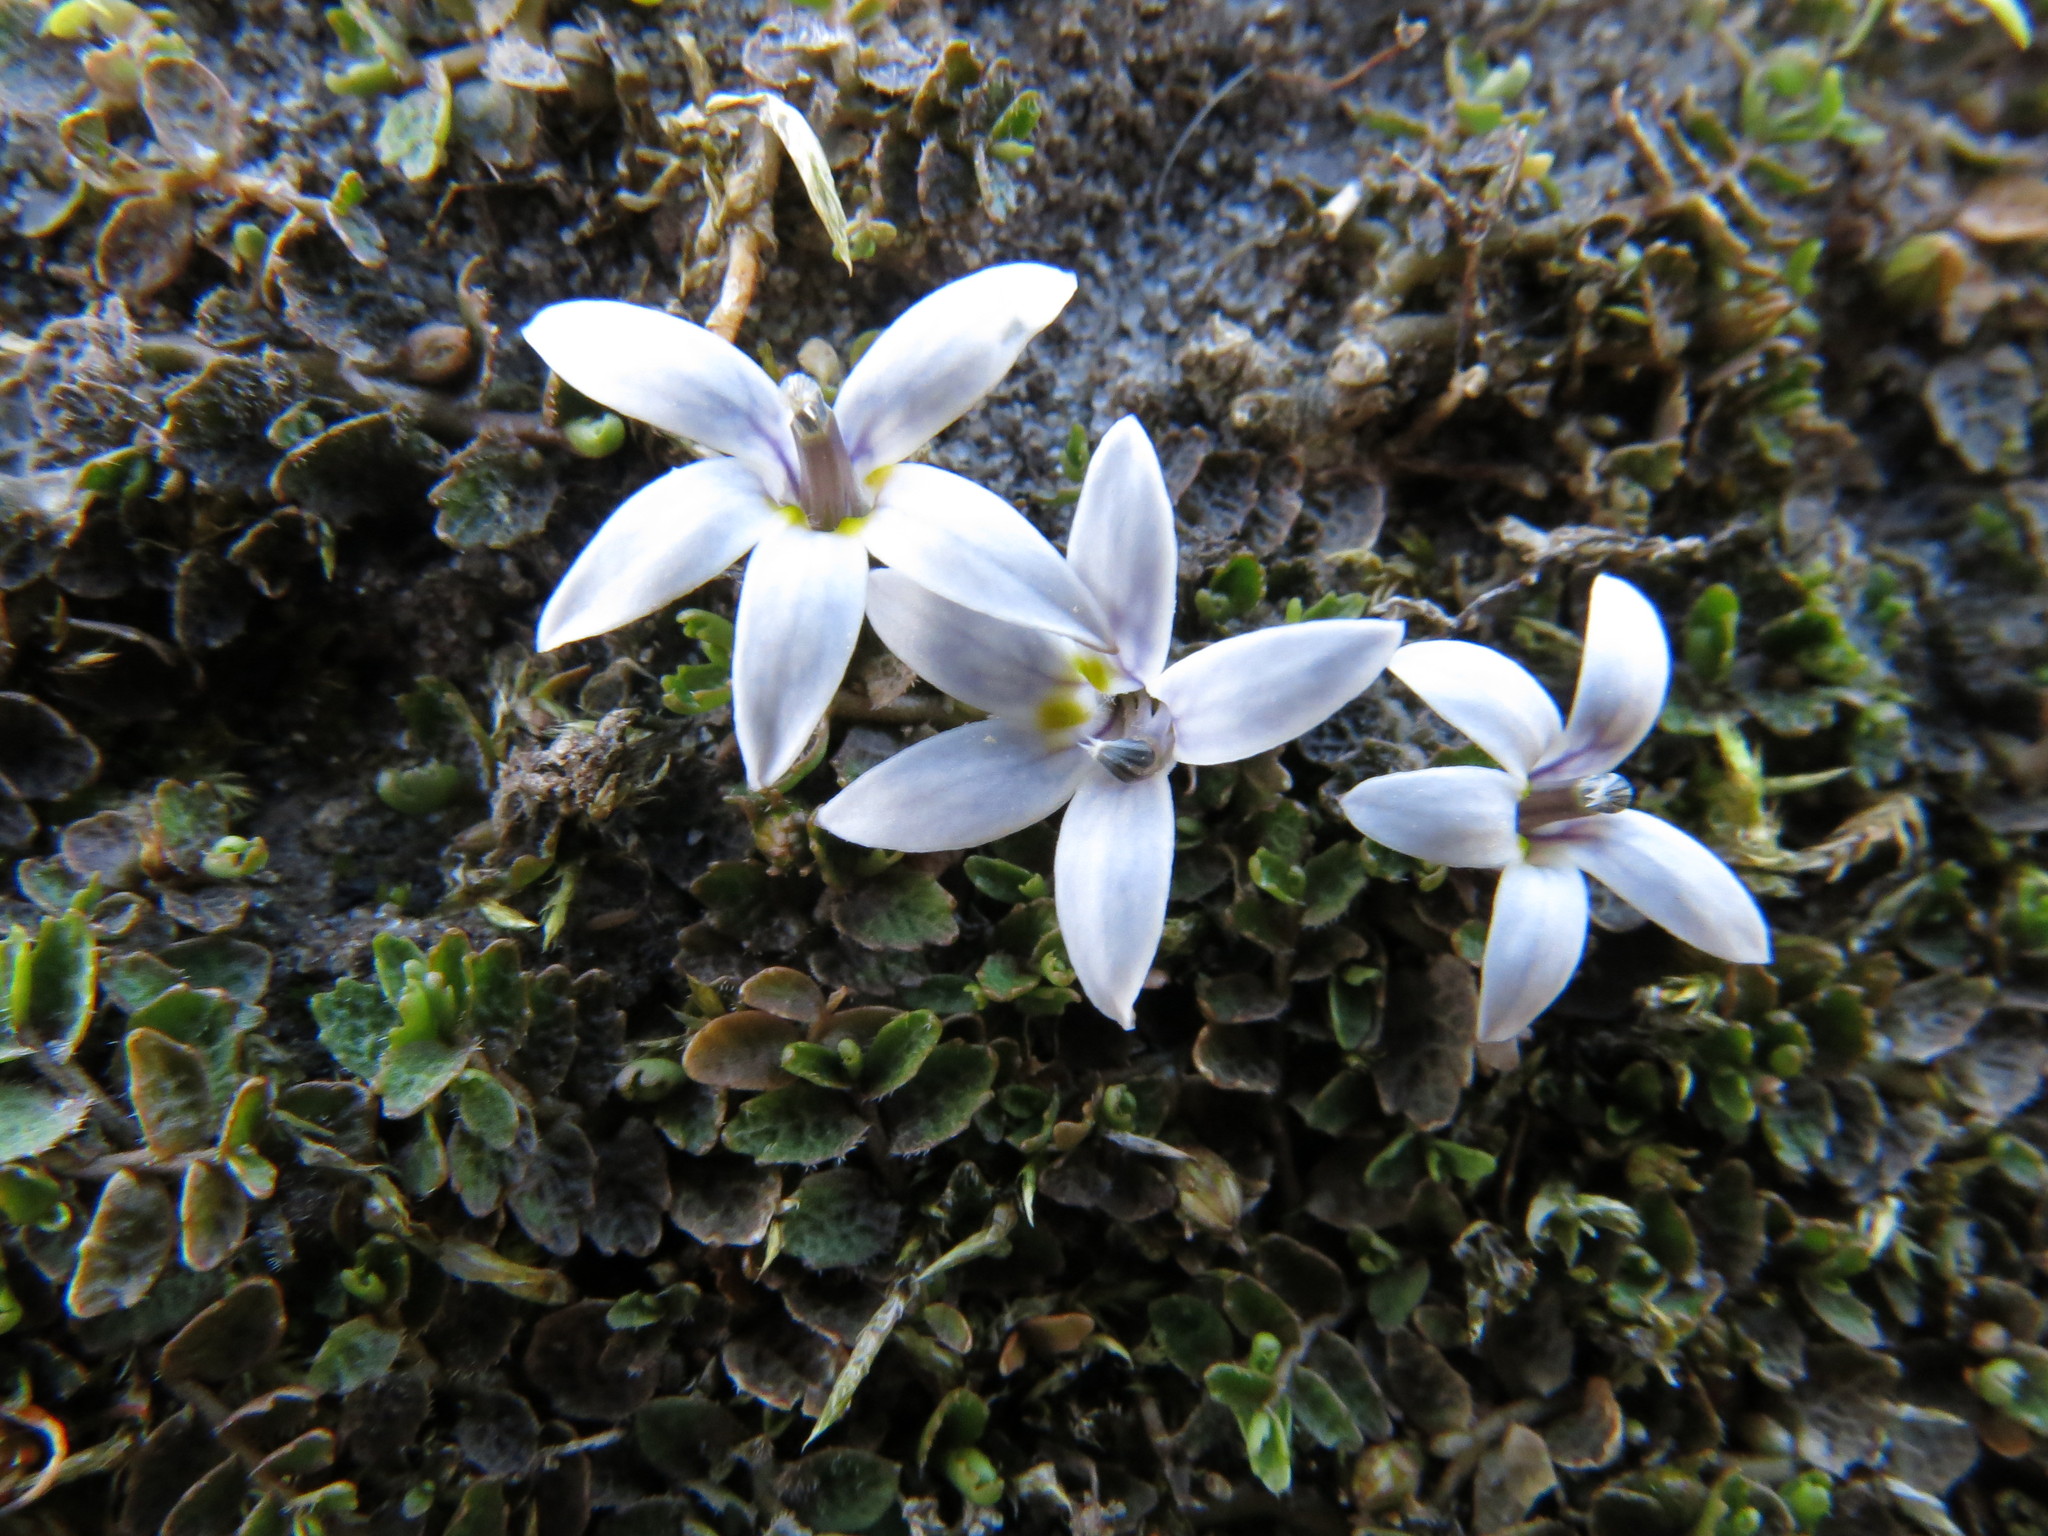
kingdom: Plantae
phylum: Tracheophyta
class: Magnoliopsida
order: Asterales
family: Campanulaceae
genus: Lobelia
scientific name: Lobelia perpusilla
